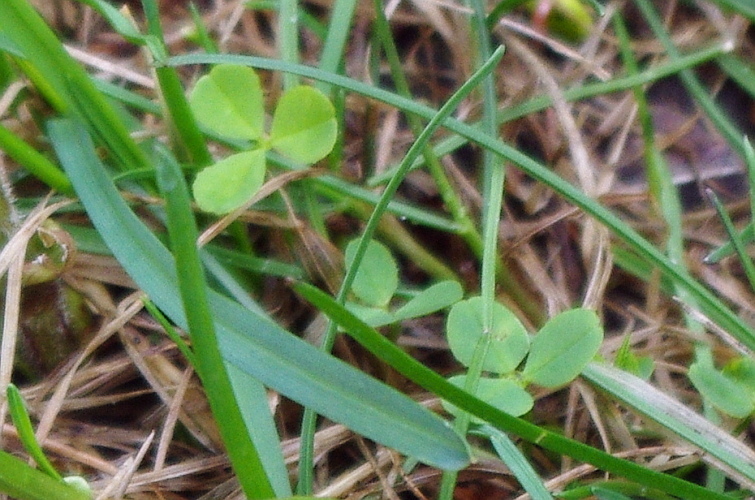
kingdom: Plantae
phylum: Tracheophyta
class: Magnoliopsida
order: Fabales
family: Fabaceae
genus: Trifolium
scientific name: Trifolium repens
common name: White clover
